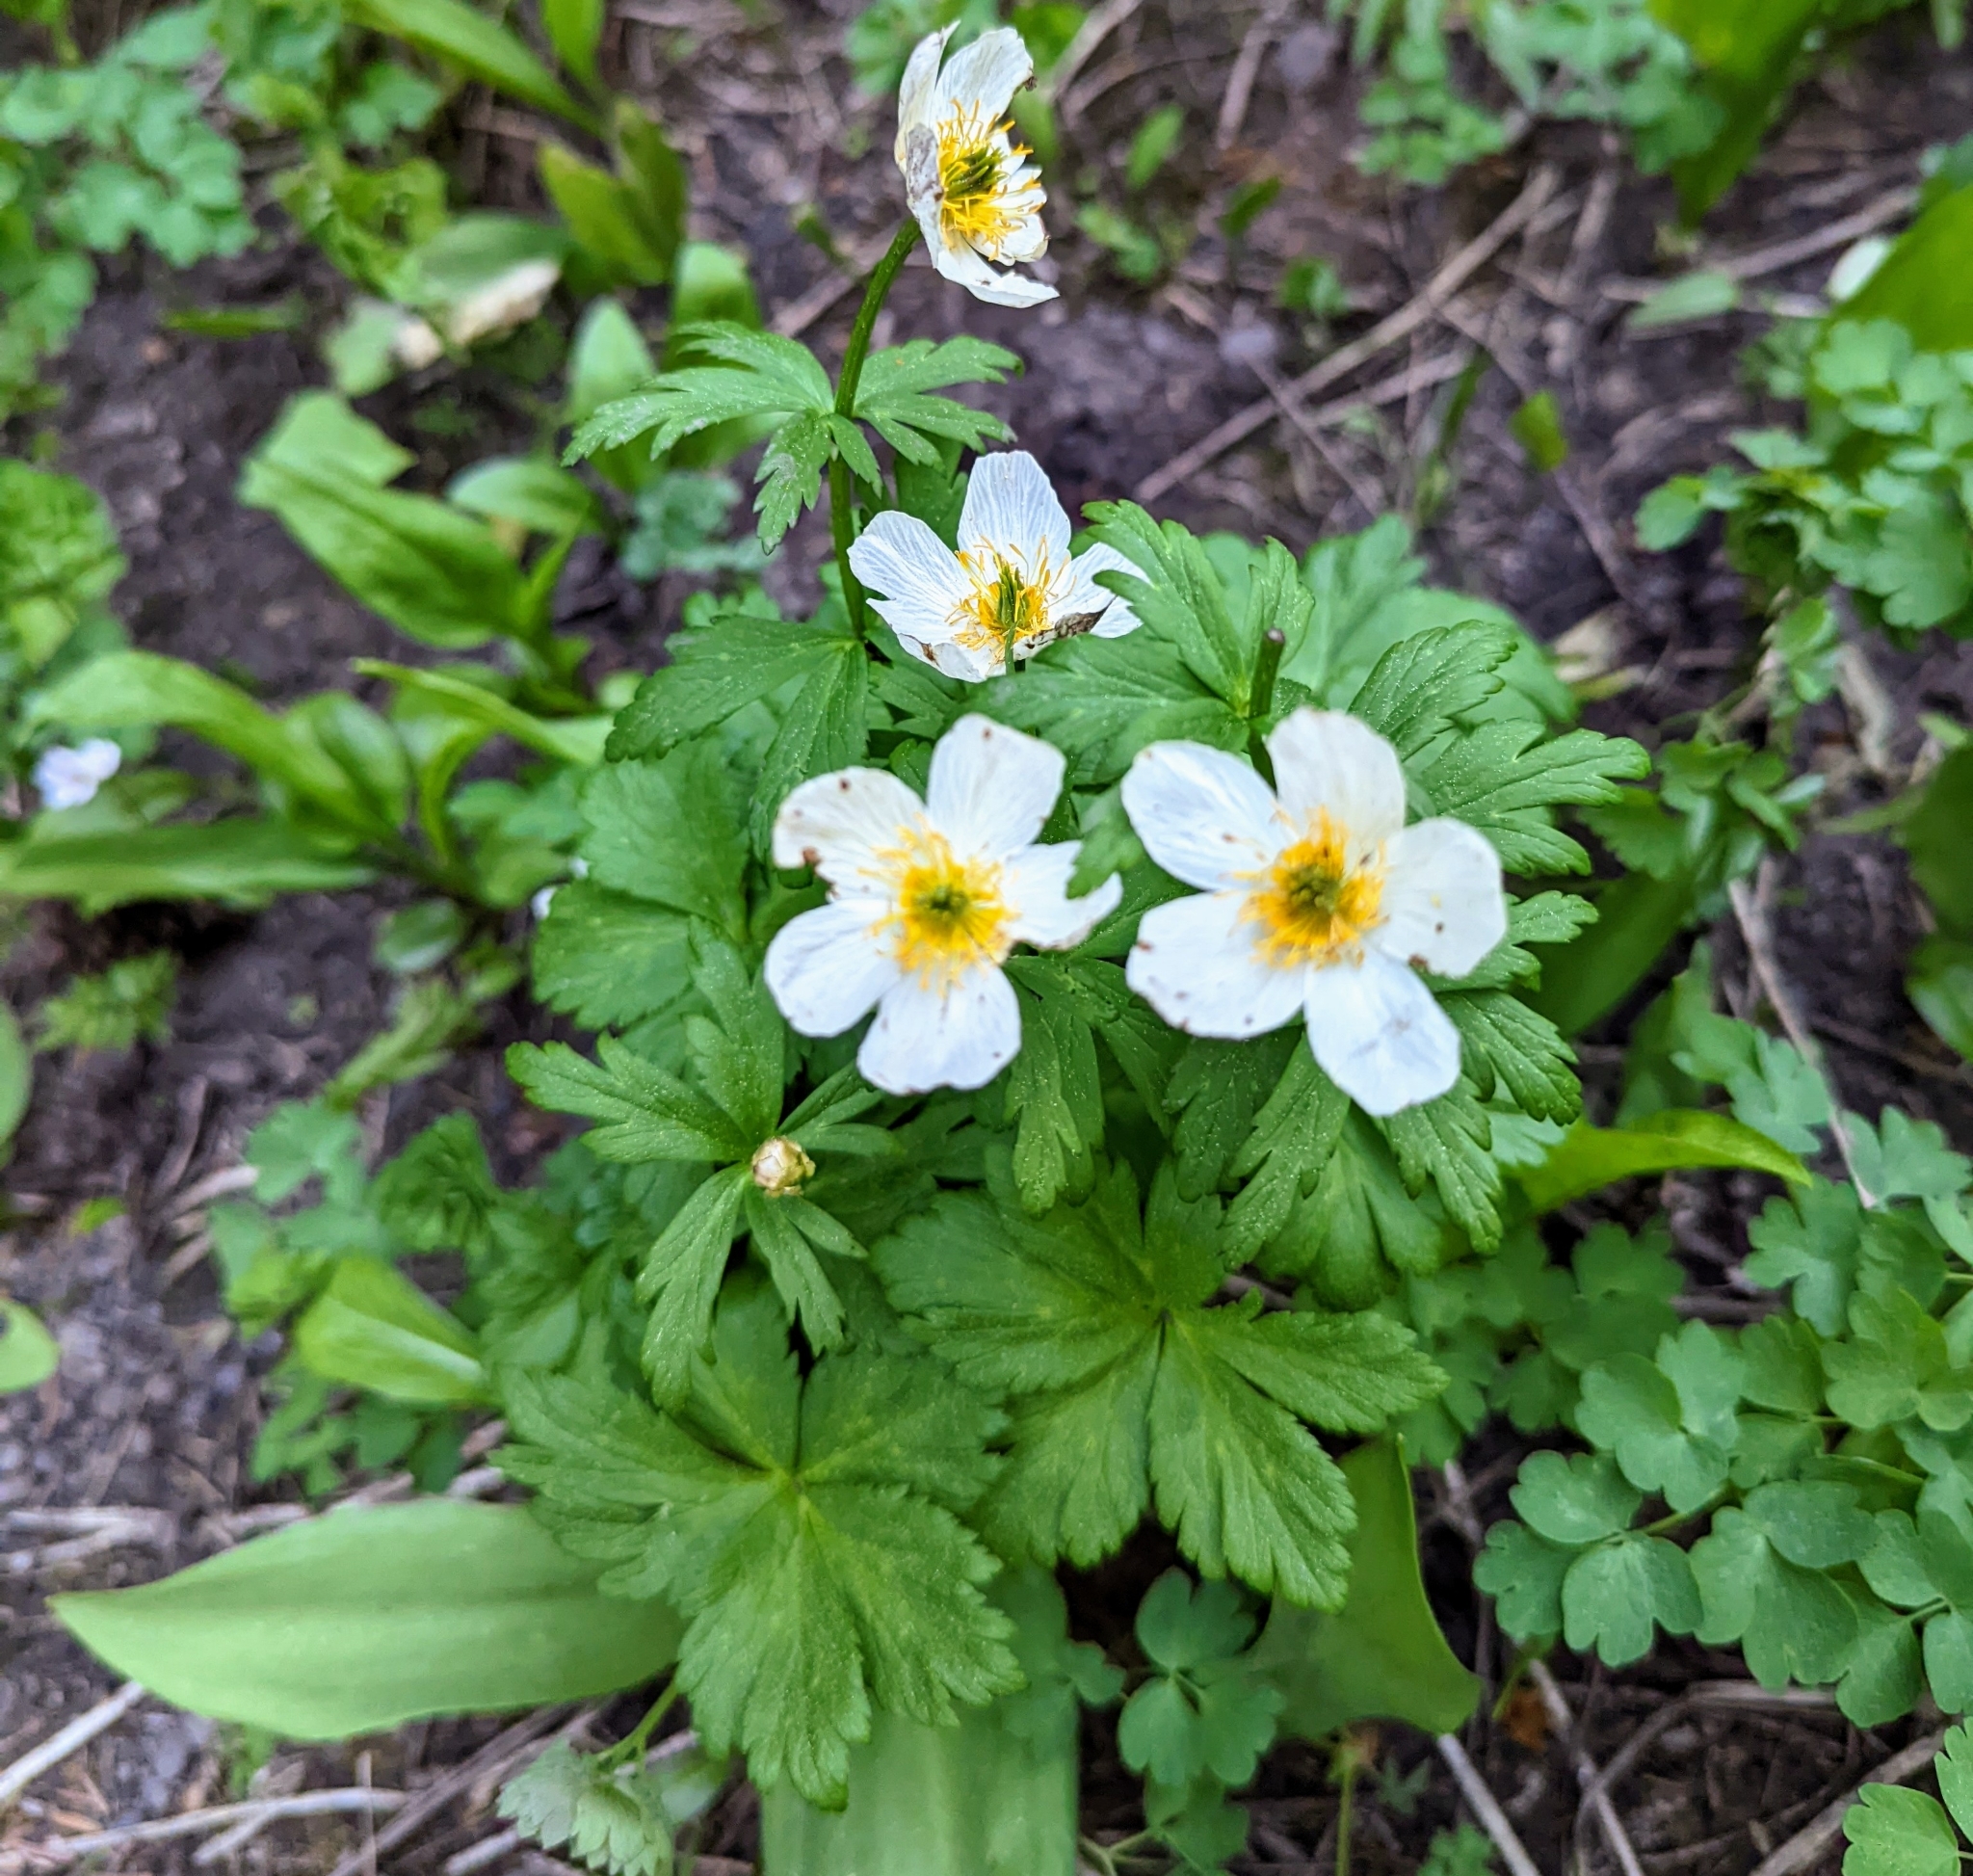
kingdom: Plantae
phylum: Tracheophyta
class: Magnoliopsida
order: Ranunculales
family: Ranunculaceae
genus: Trollius
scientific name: Trollius laxus
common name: American globeflower
